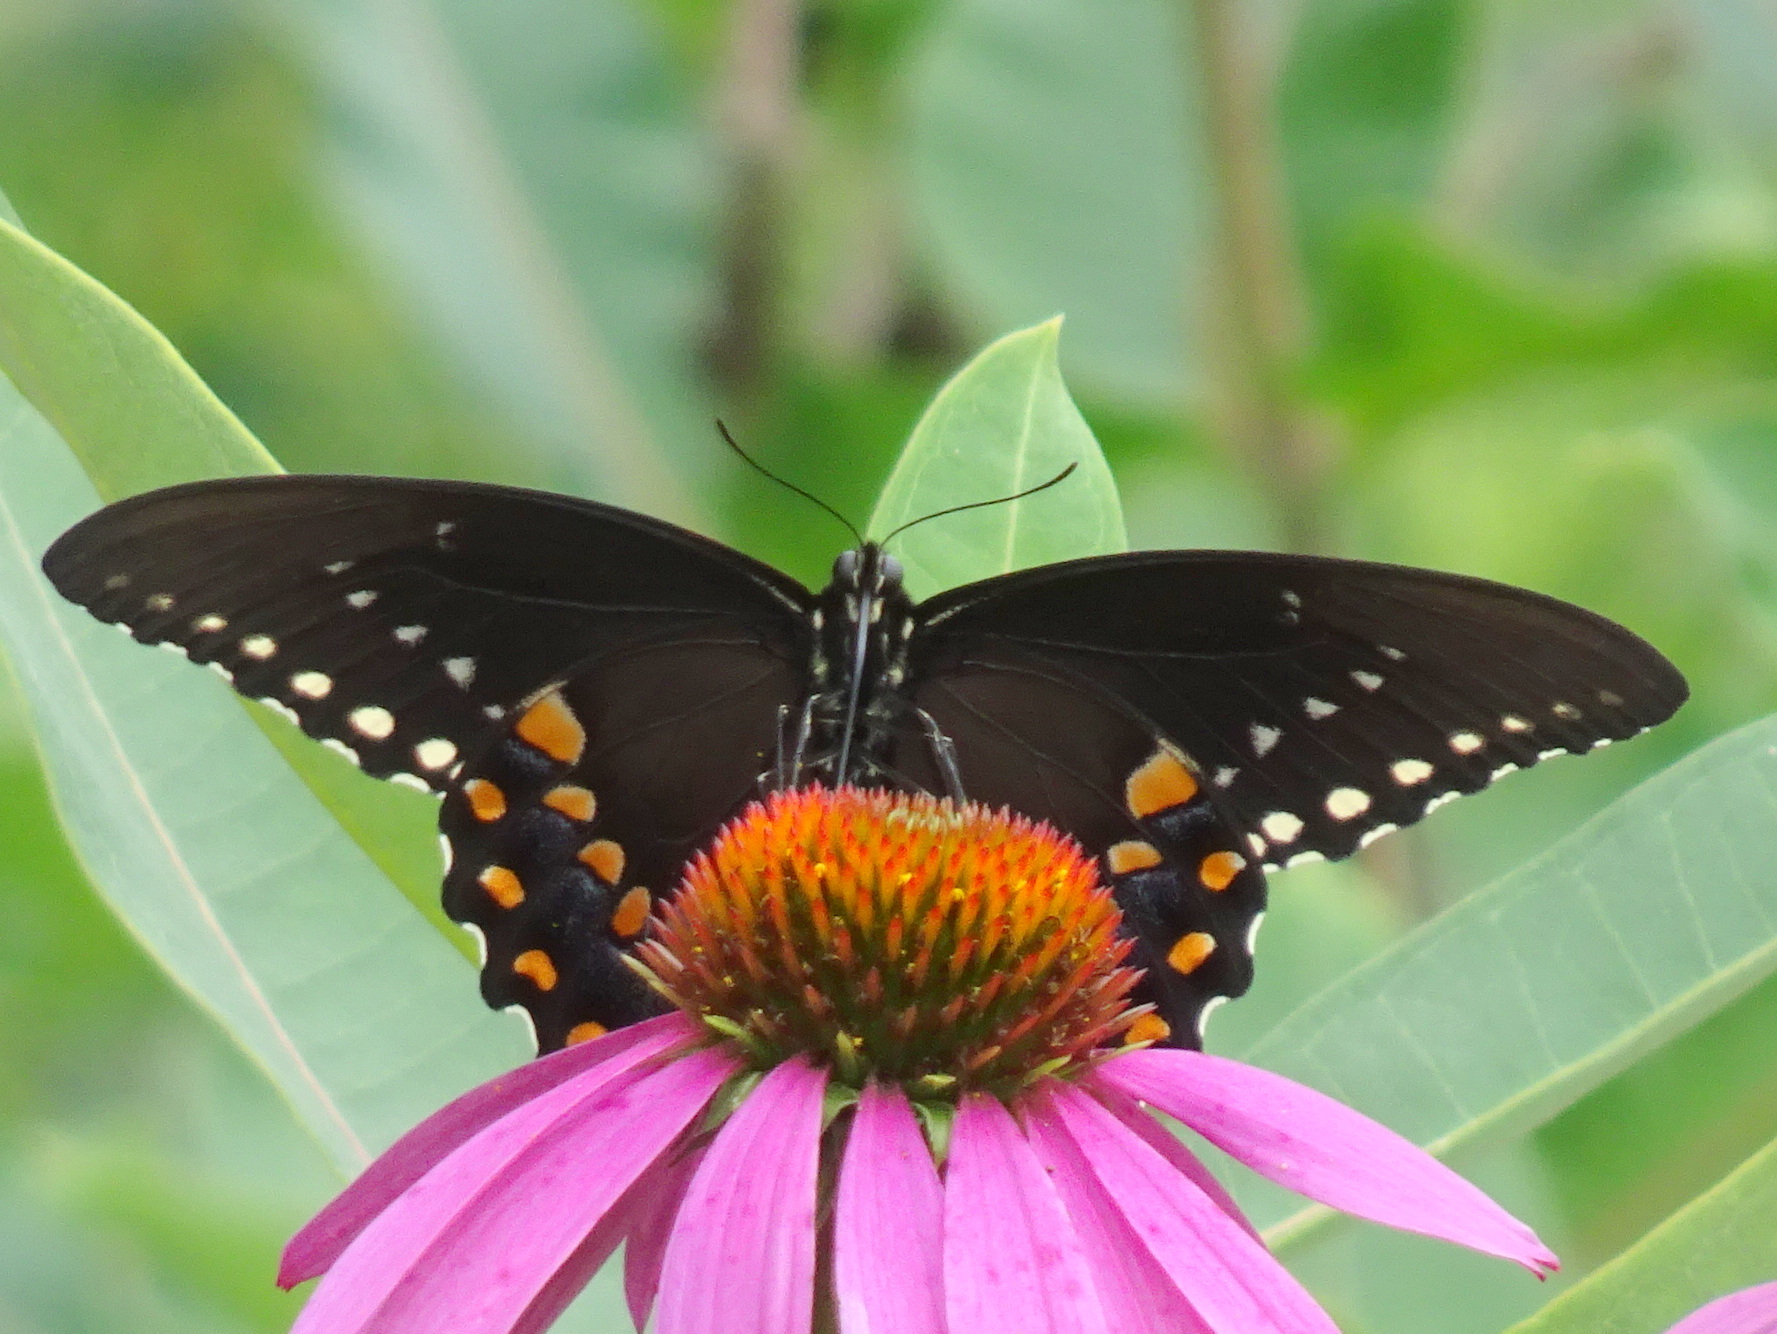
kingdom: Animalia
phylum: Arthropoda
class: Insecta
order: Lepidoptera
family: Papilionidae
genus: Papilio
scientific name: Papilio troilus
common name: Spicebush swallowtail
